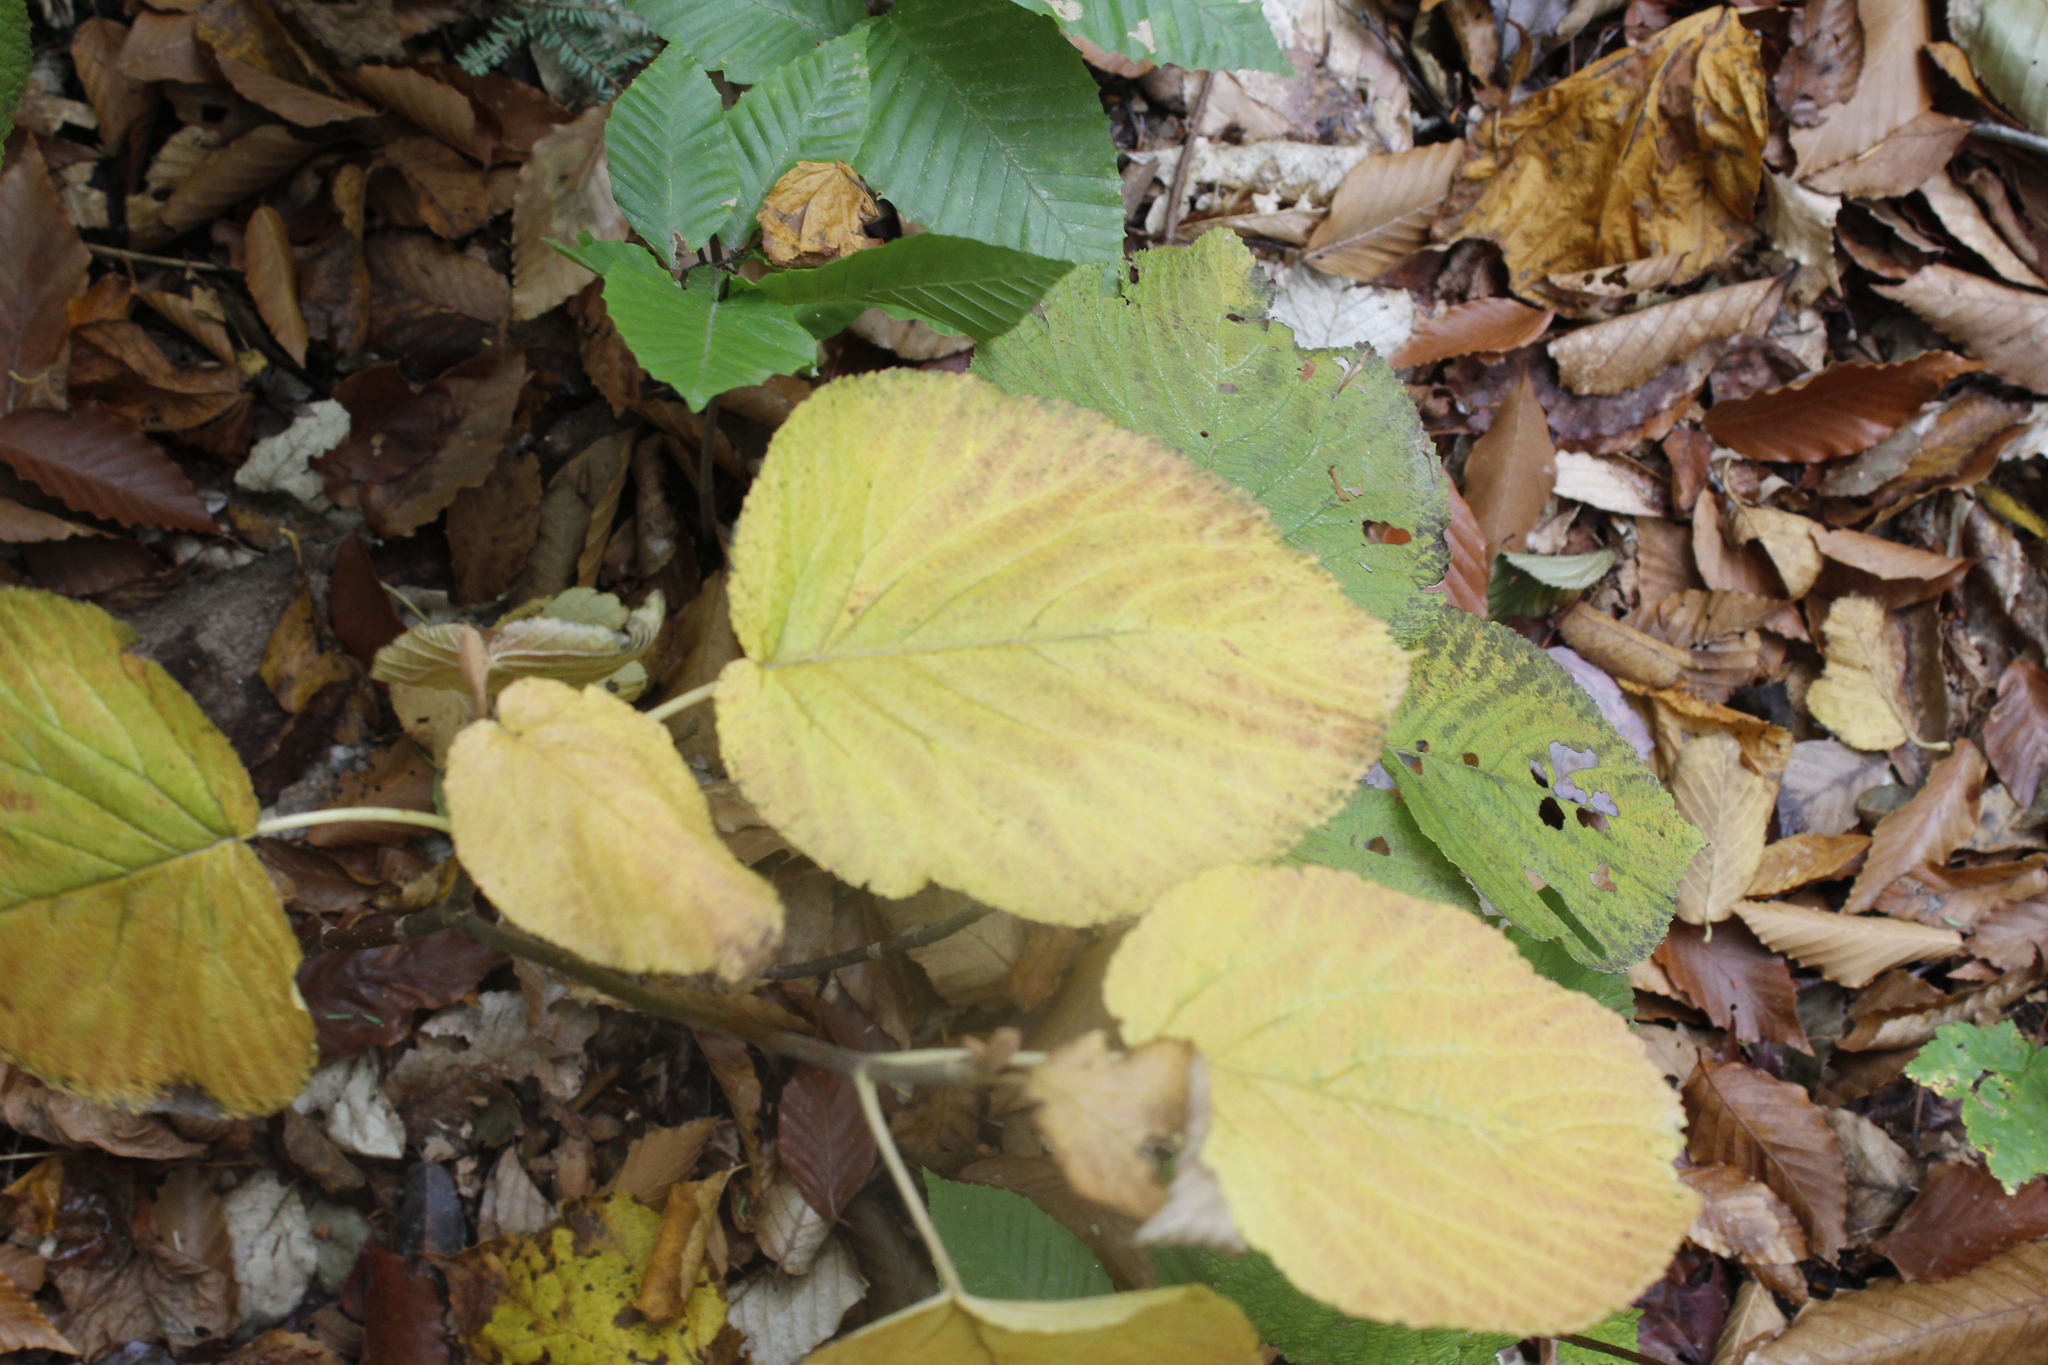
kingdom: Plantae
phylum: Tracheophyta
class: Magnoliopsida
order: Dipsacales
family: Viburnaceae
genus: Viburnum
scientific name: Viburnum lantanoides
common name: Hobblebush
